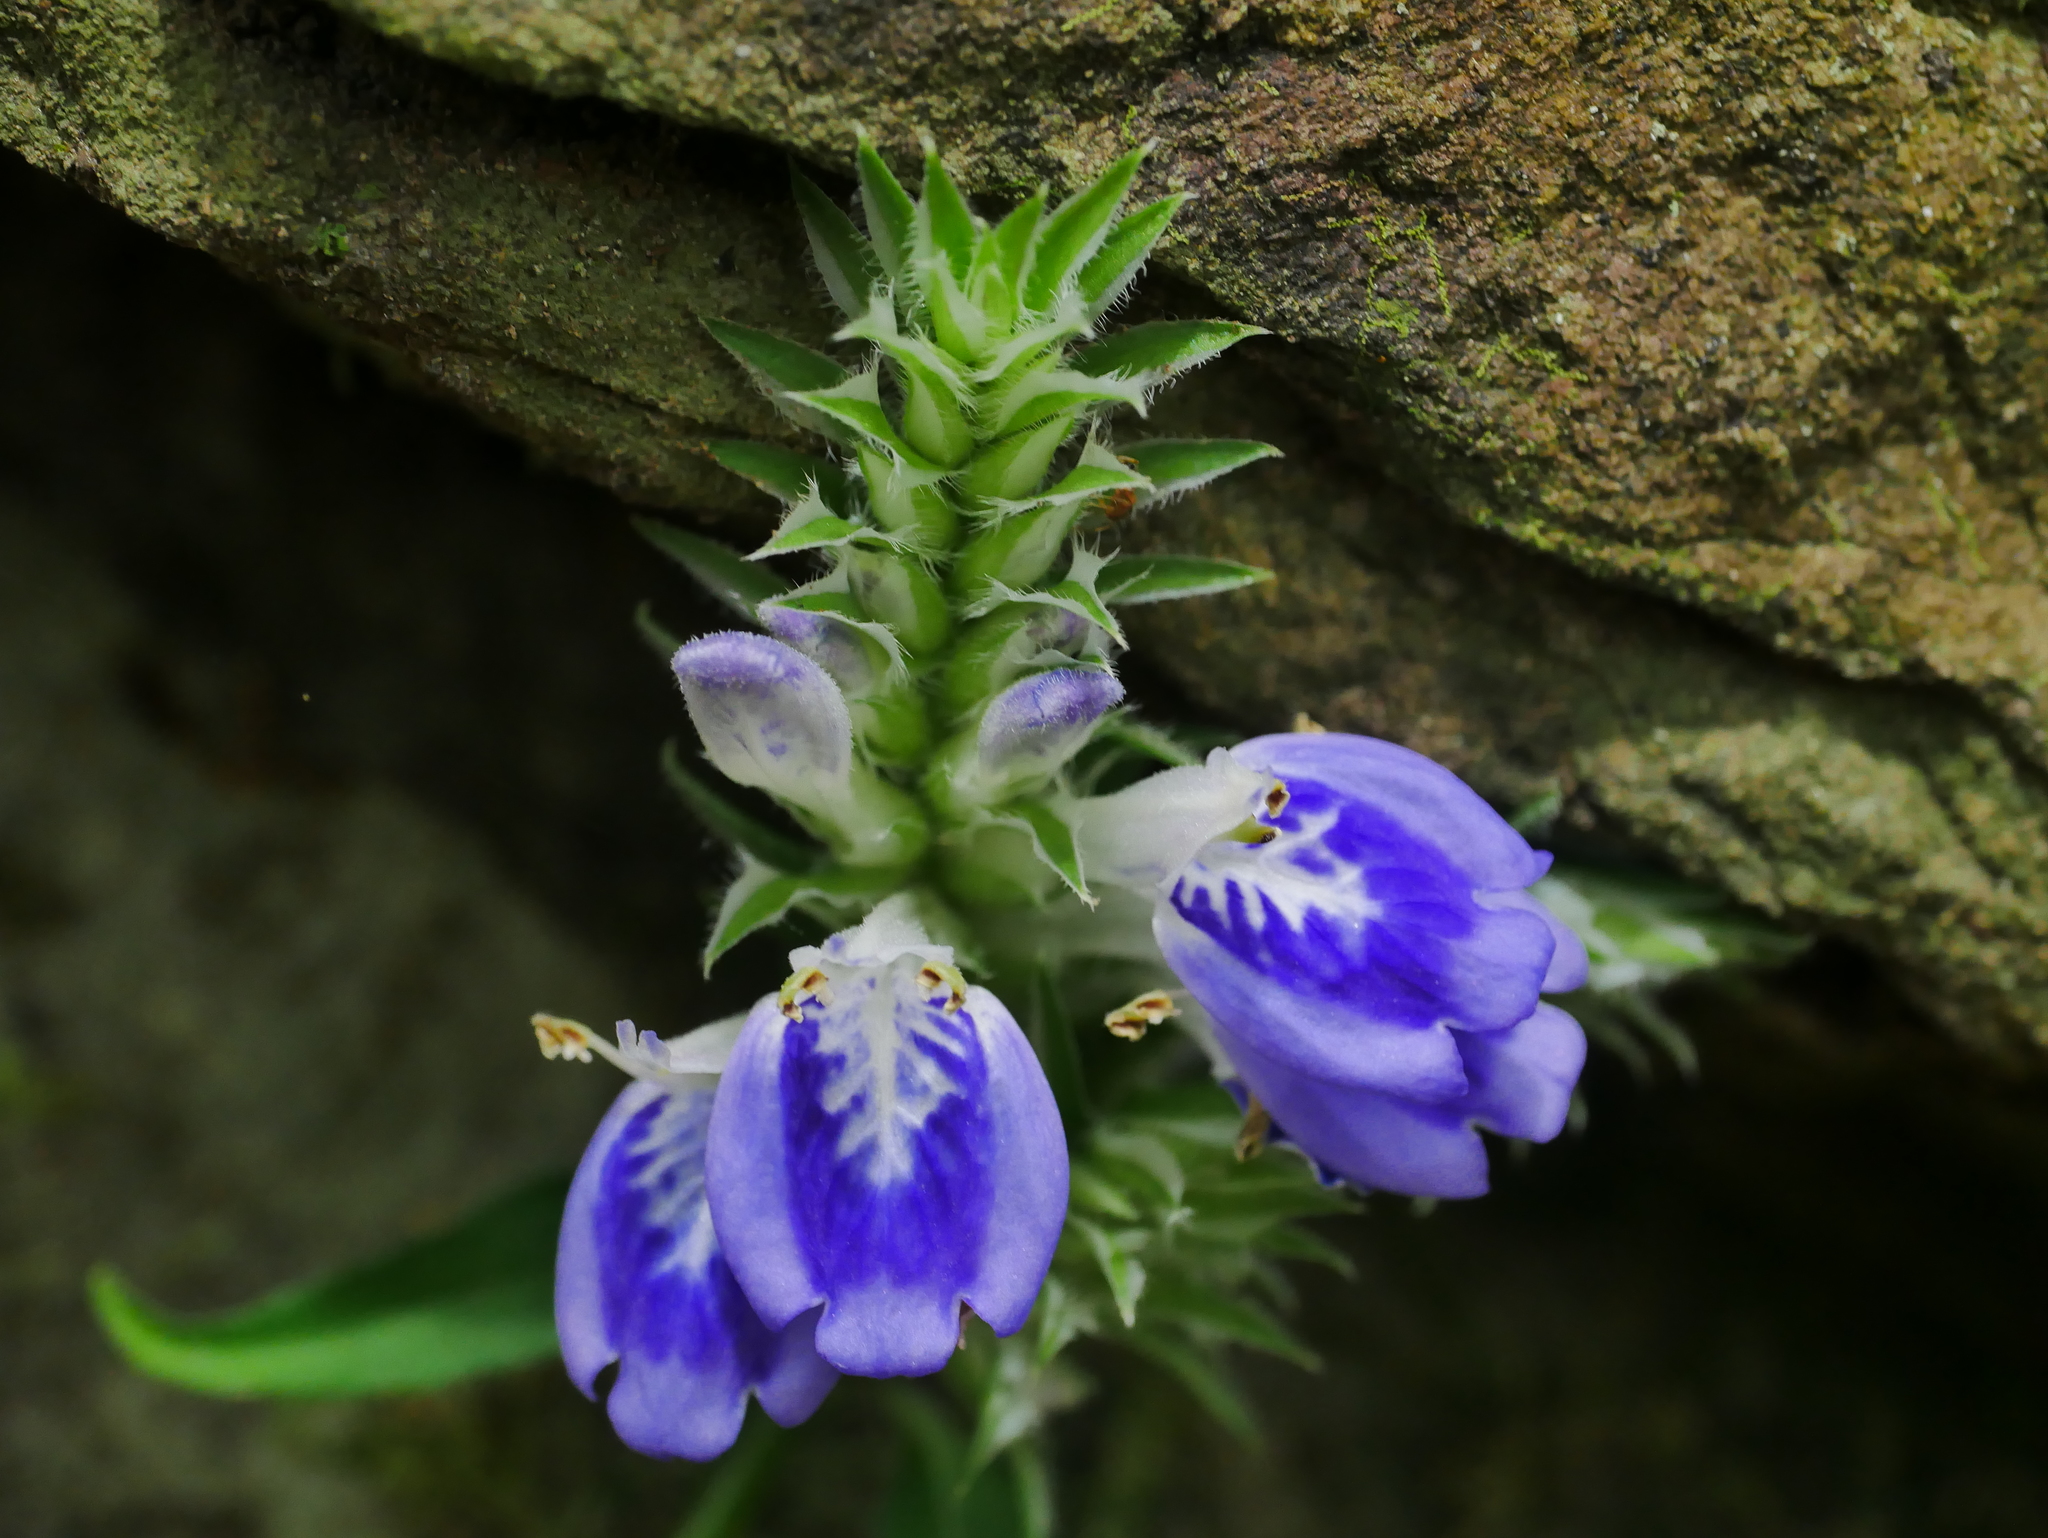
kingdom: Plantae
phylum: Tracheophyta
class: Magnoliopsida
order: Lamiales
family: Acanthaceae
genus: Rungia
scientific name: Rungia taiwanensis
